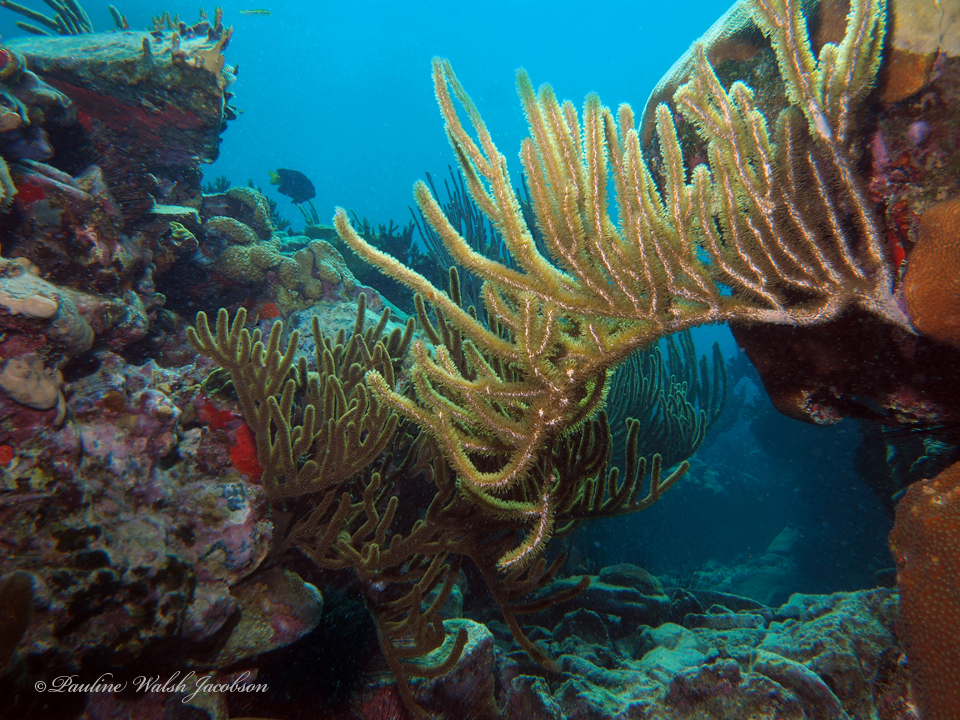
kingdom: Animalia
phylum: Cnidaria
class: Anthozoa
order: Malacalcyonacea
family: Plexauridae
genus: Plexaura
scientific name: Plexaura homomalla
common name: Black sea rod
